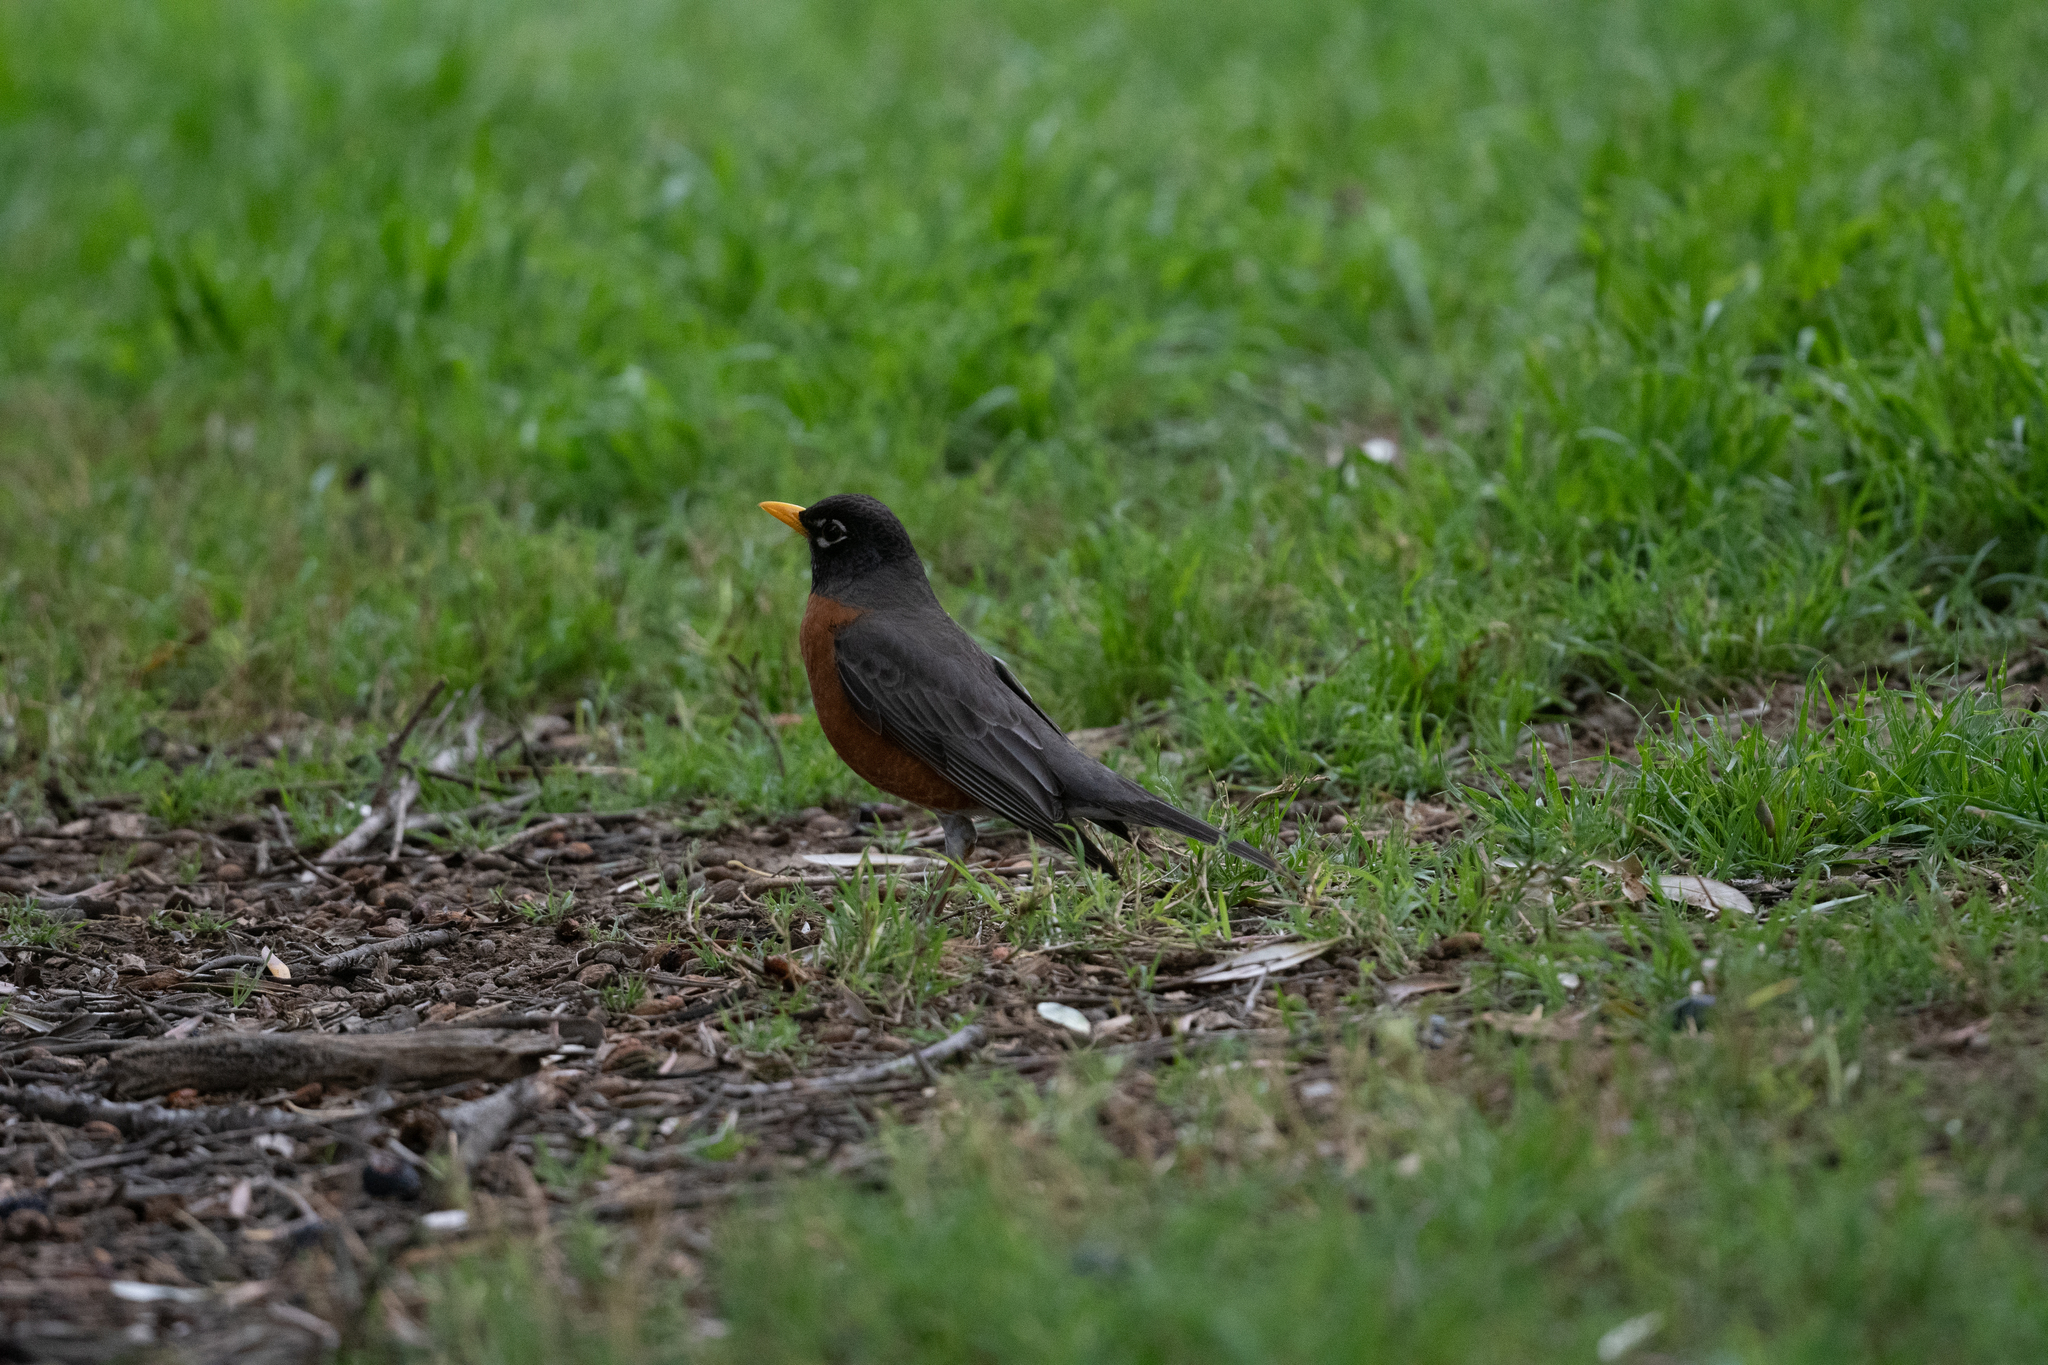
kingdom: Animalia
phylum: Chordata
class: Aves
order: Passeriformes
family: Turdidae
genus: Turdus
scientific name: Turdus migratorius
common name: American robin
